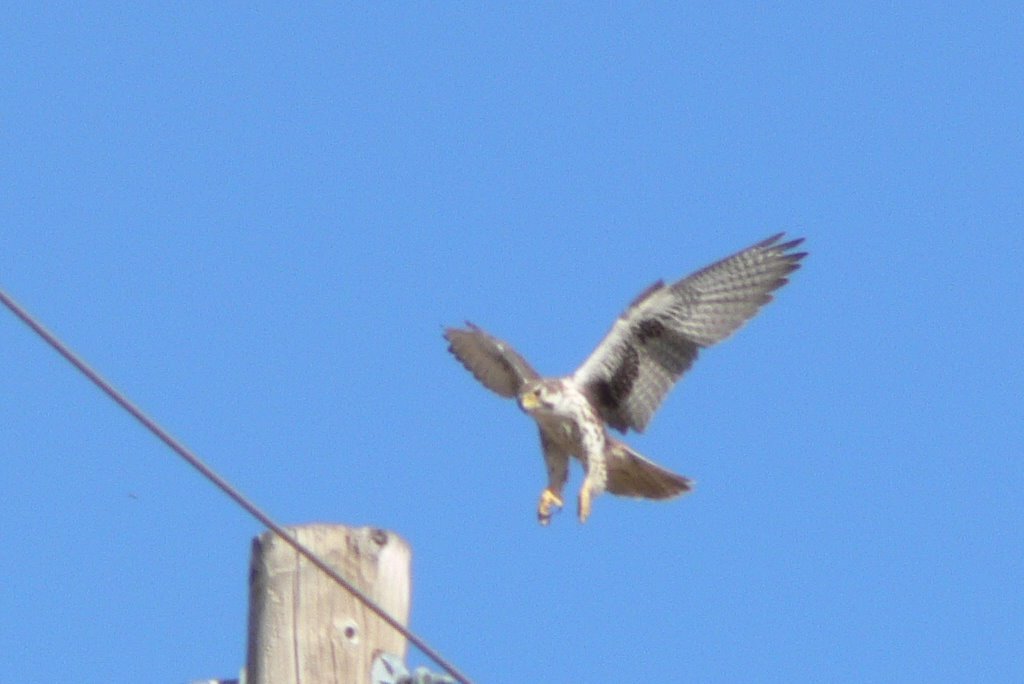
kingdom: Animalia
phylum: Chordata
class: Aves
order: Falconiformes
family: Falconidae
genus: Falco
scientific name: Falco mexicanus
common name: Prairie falcon
